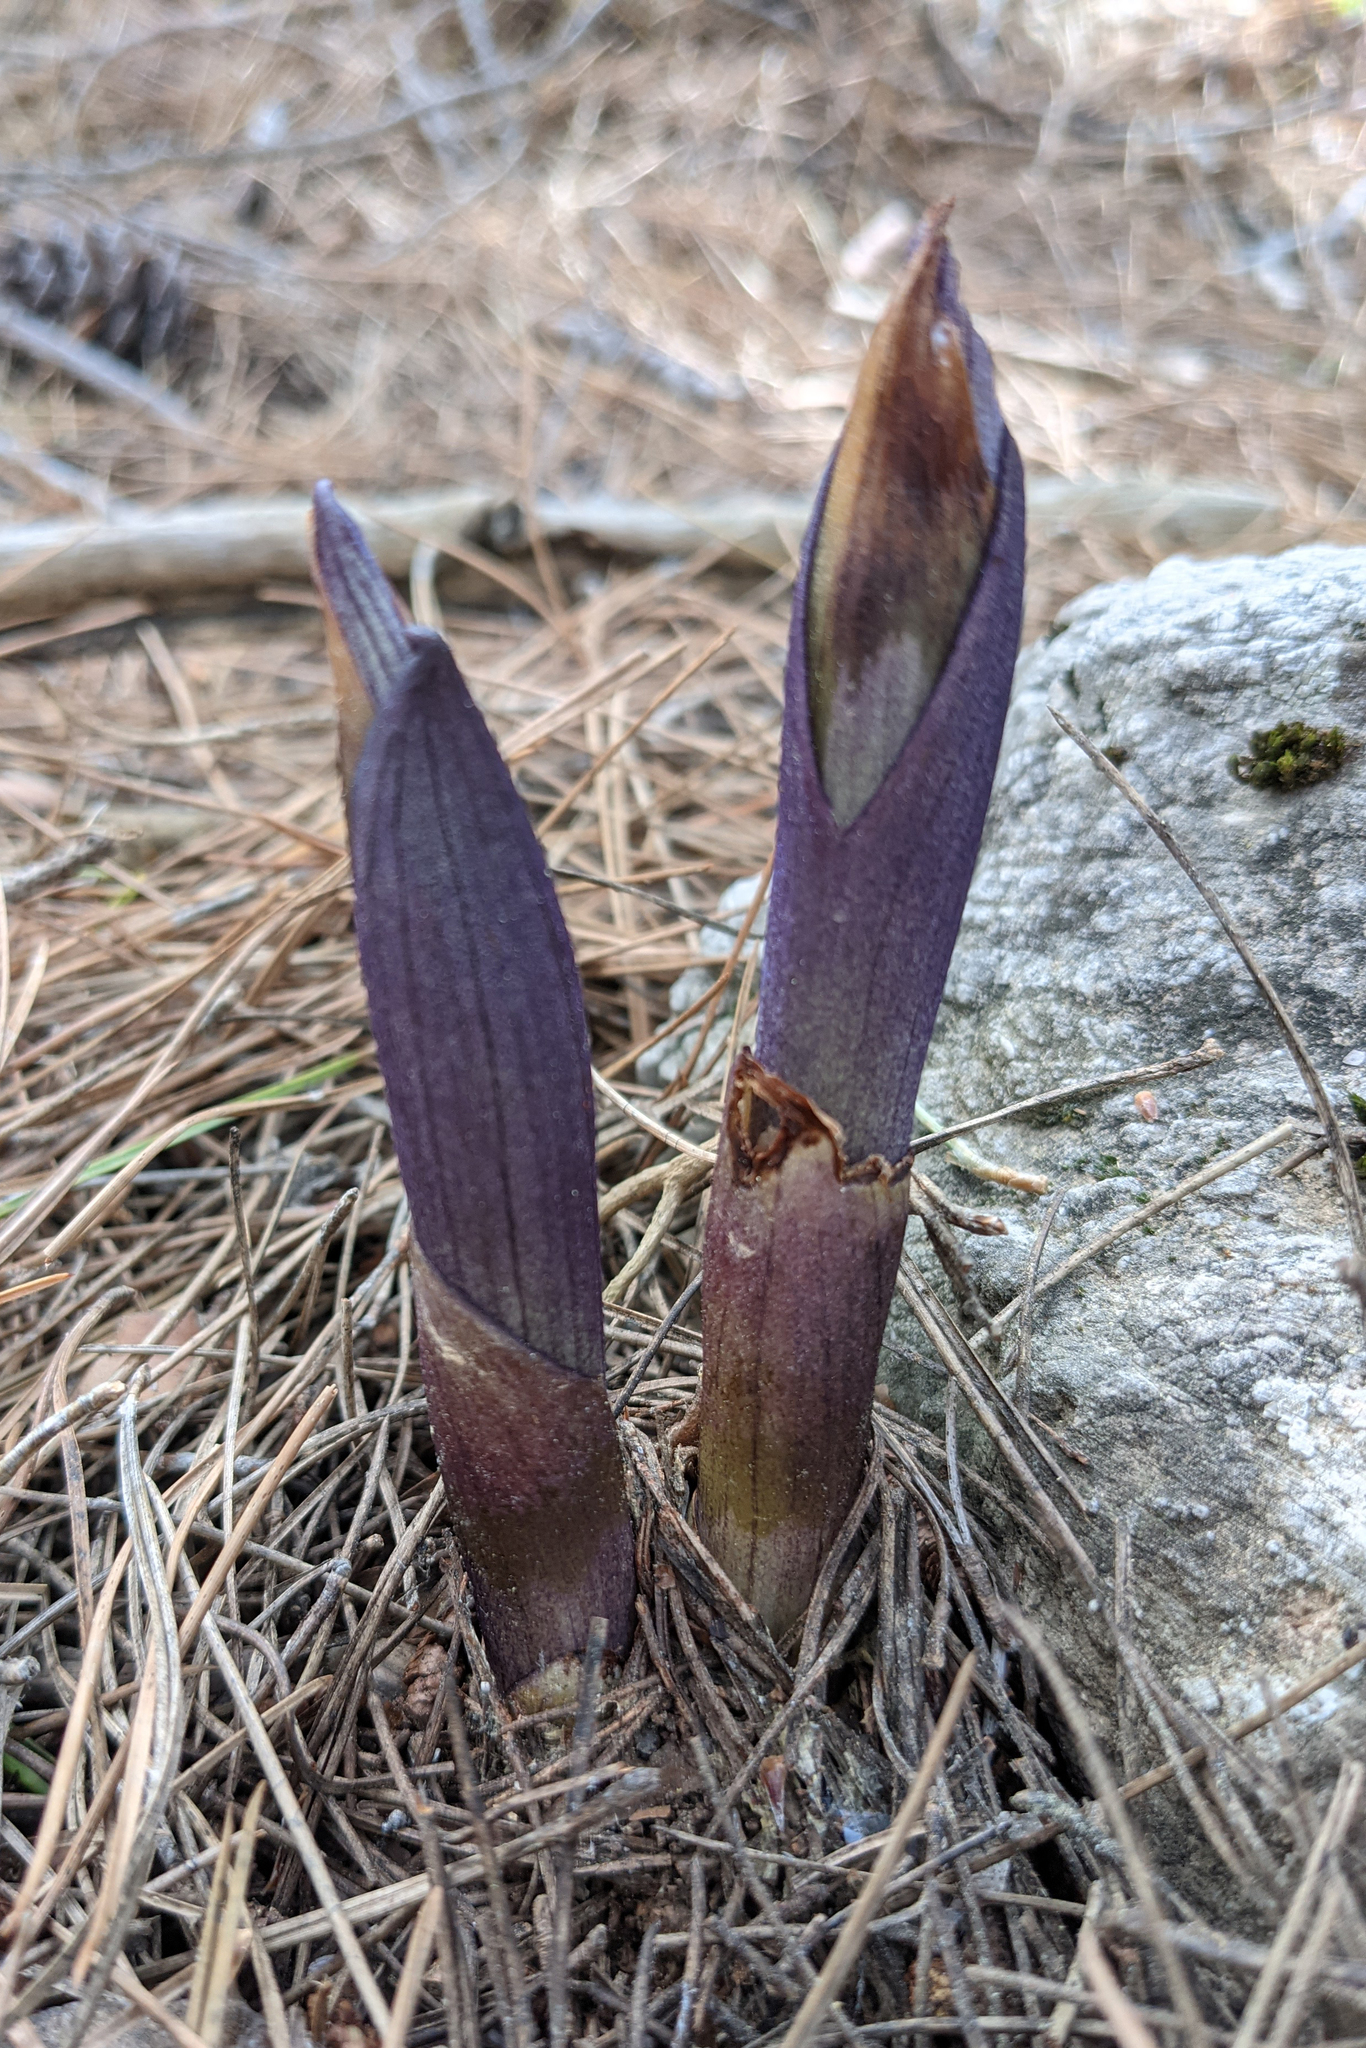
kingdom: Plantae
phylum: Tracheophyta
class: Liliopsida
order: Asparagales
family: Orchidaceae
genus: Limodorum
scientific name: Limodorum abortivum
